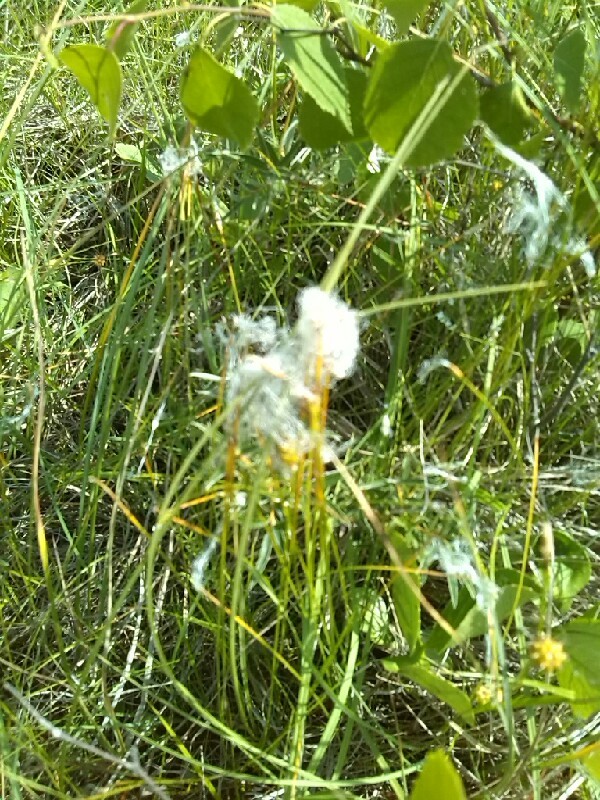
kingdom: Plantae
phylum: Tracheophyta
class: Liliopsida
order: Poales
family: Cyperaceae
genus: Trichophorum
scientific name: Trichophorum alpinum
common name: Alpine bulrush
